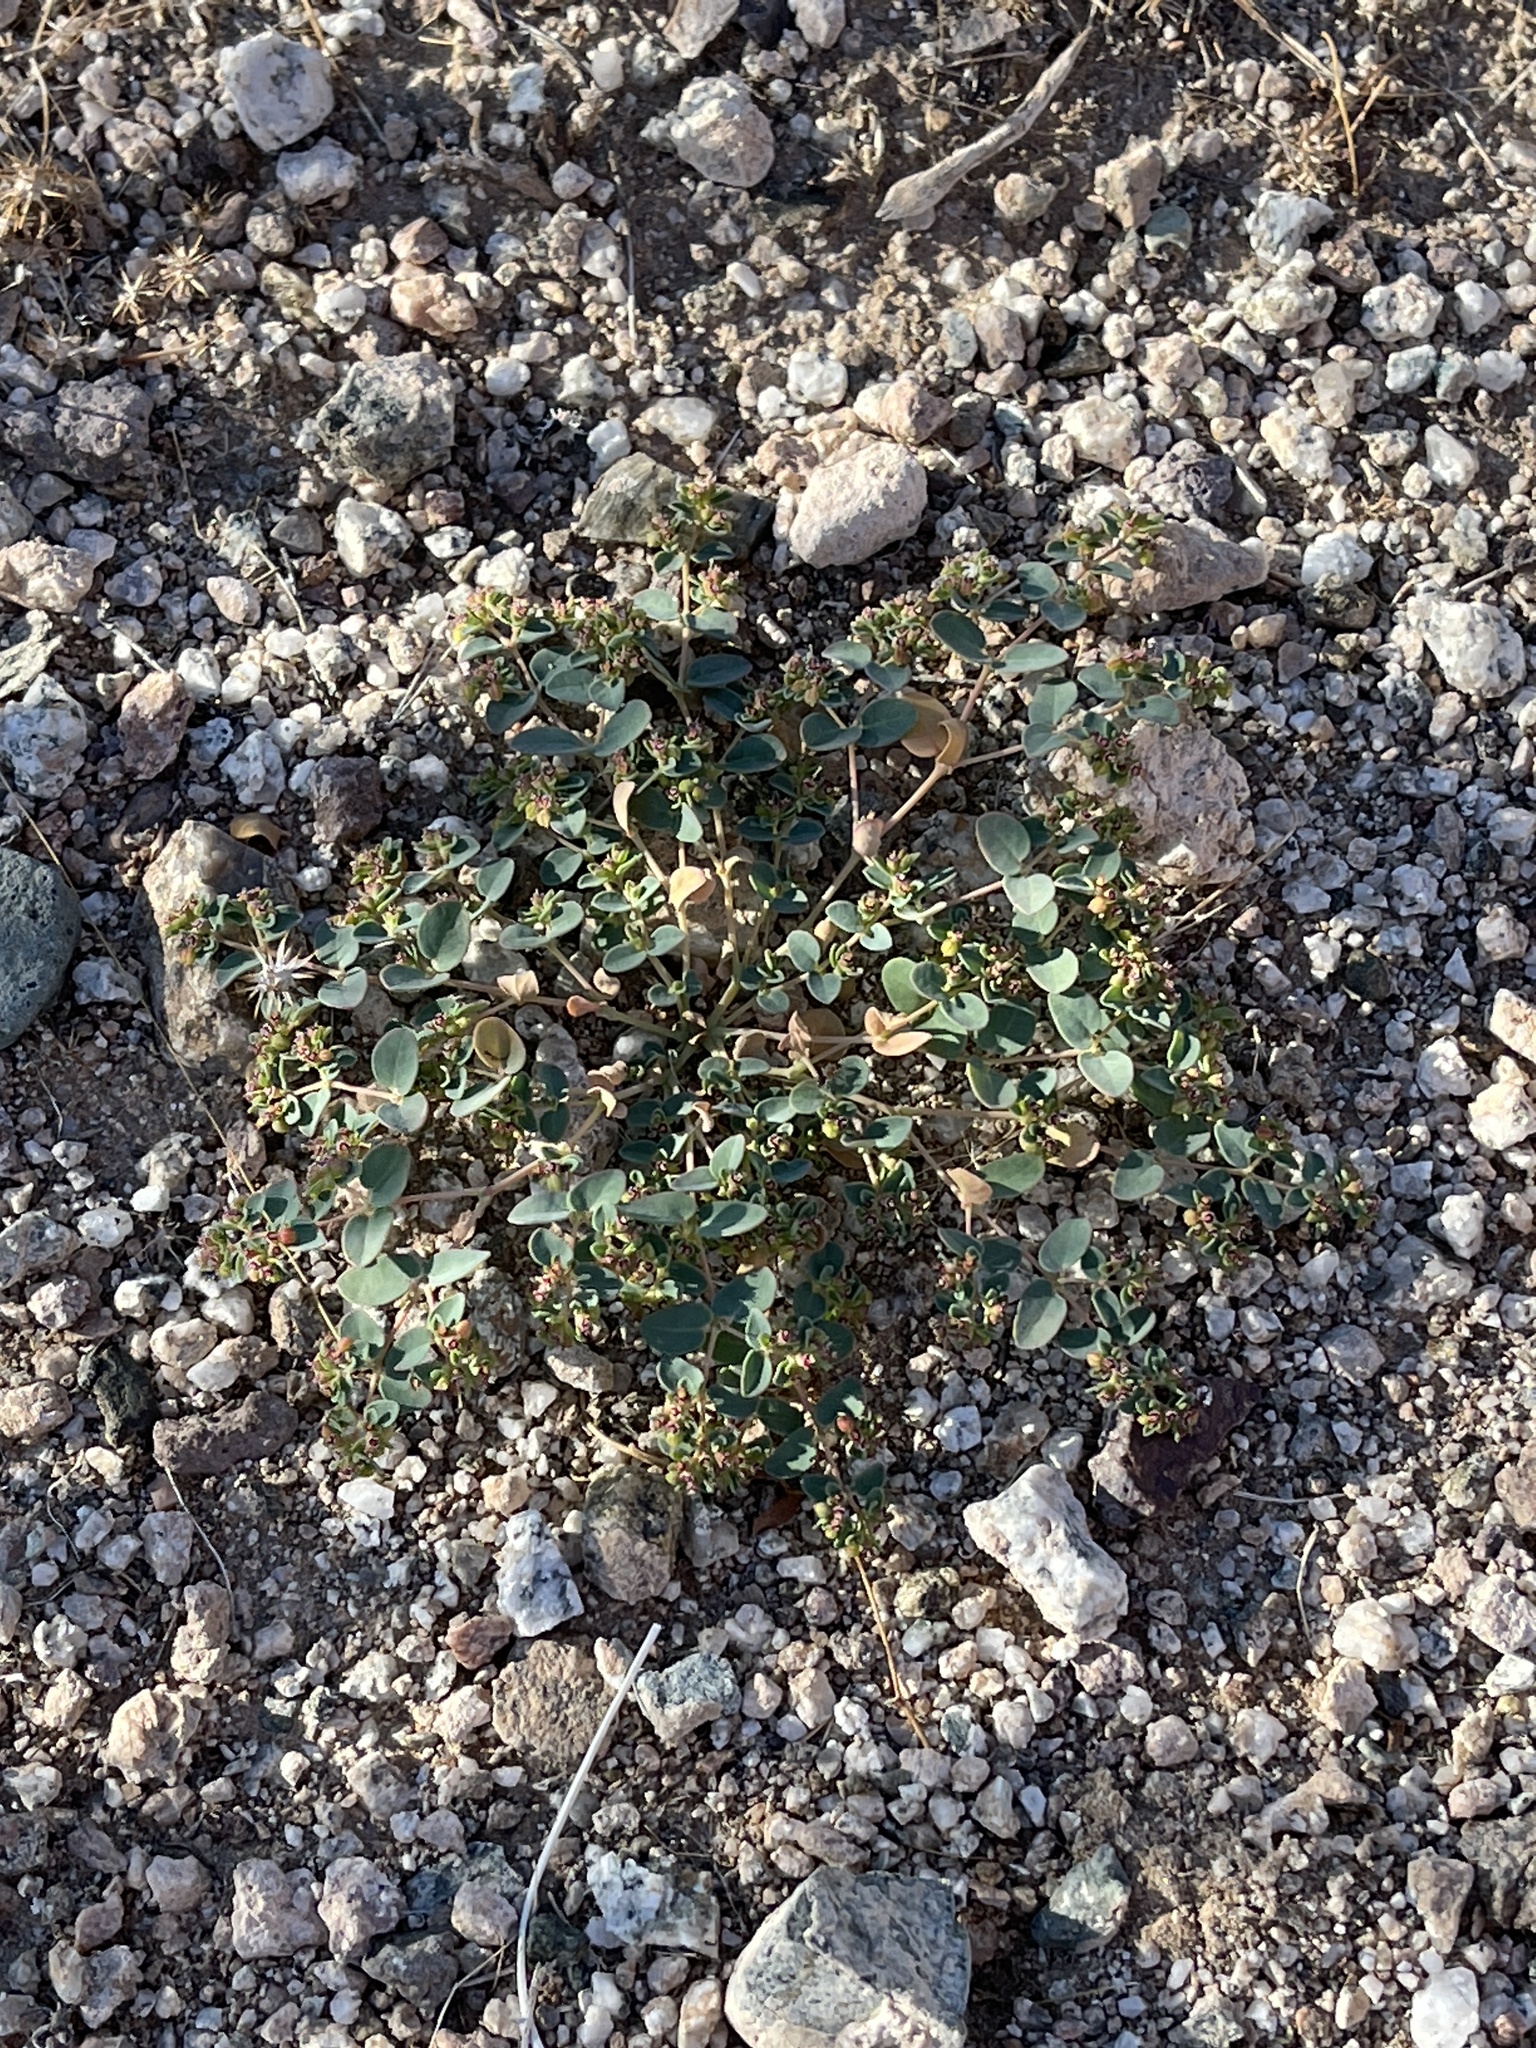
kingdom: Plantae
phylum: Tracheophyta
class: Magnoliopsida
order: Malpighiales
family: Euphorbiaceae
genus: Euphorbia
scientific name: Euphorbia polycarpa
